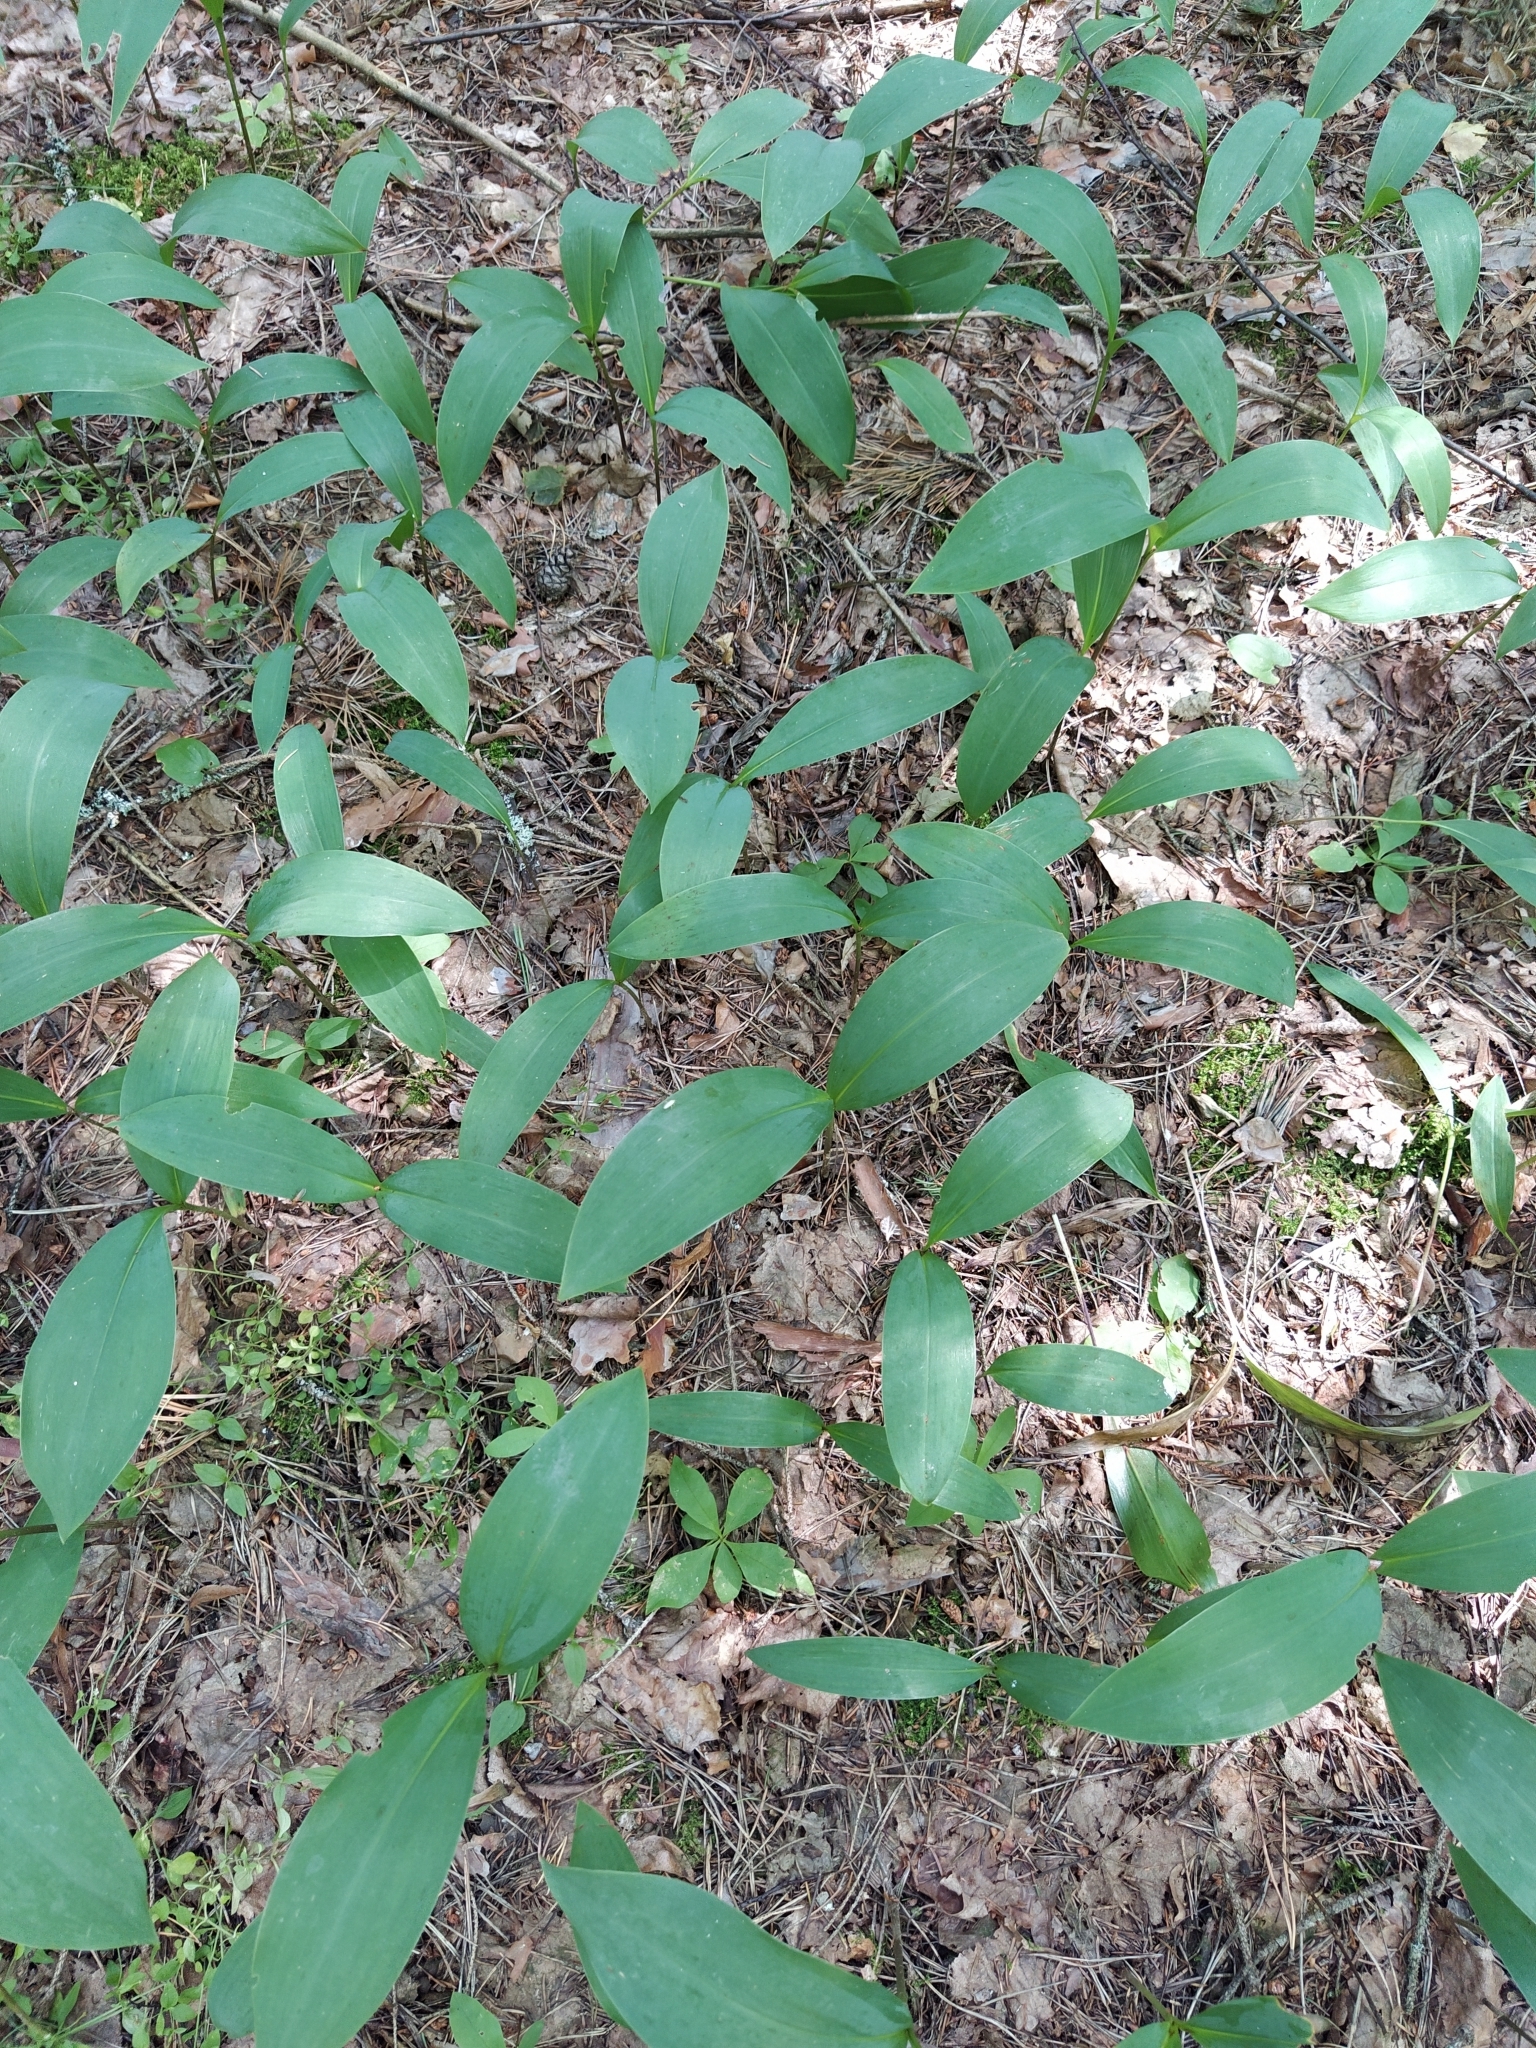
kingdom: Plantae
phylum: Tracheophyta
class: Liliopsida
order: Asparagales
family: Asparagaceae
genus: Convallaria
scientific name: Convallaria majalis
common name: Lily-of-the-valley
